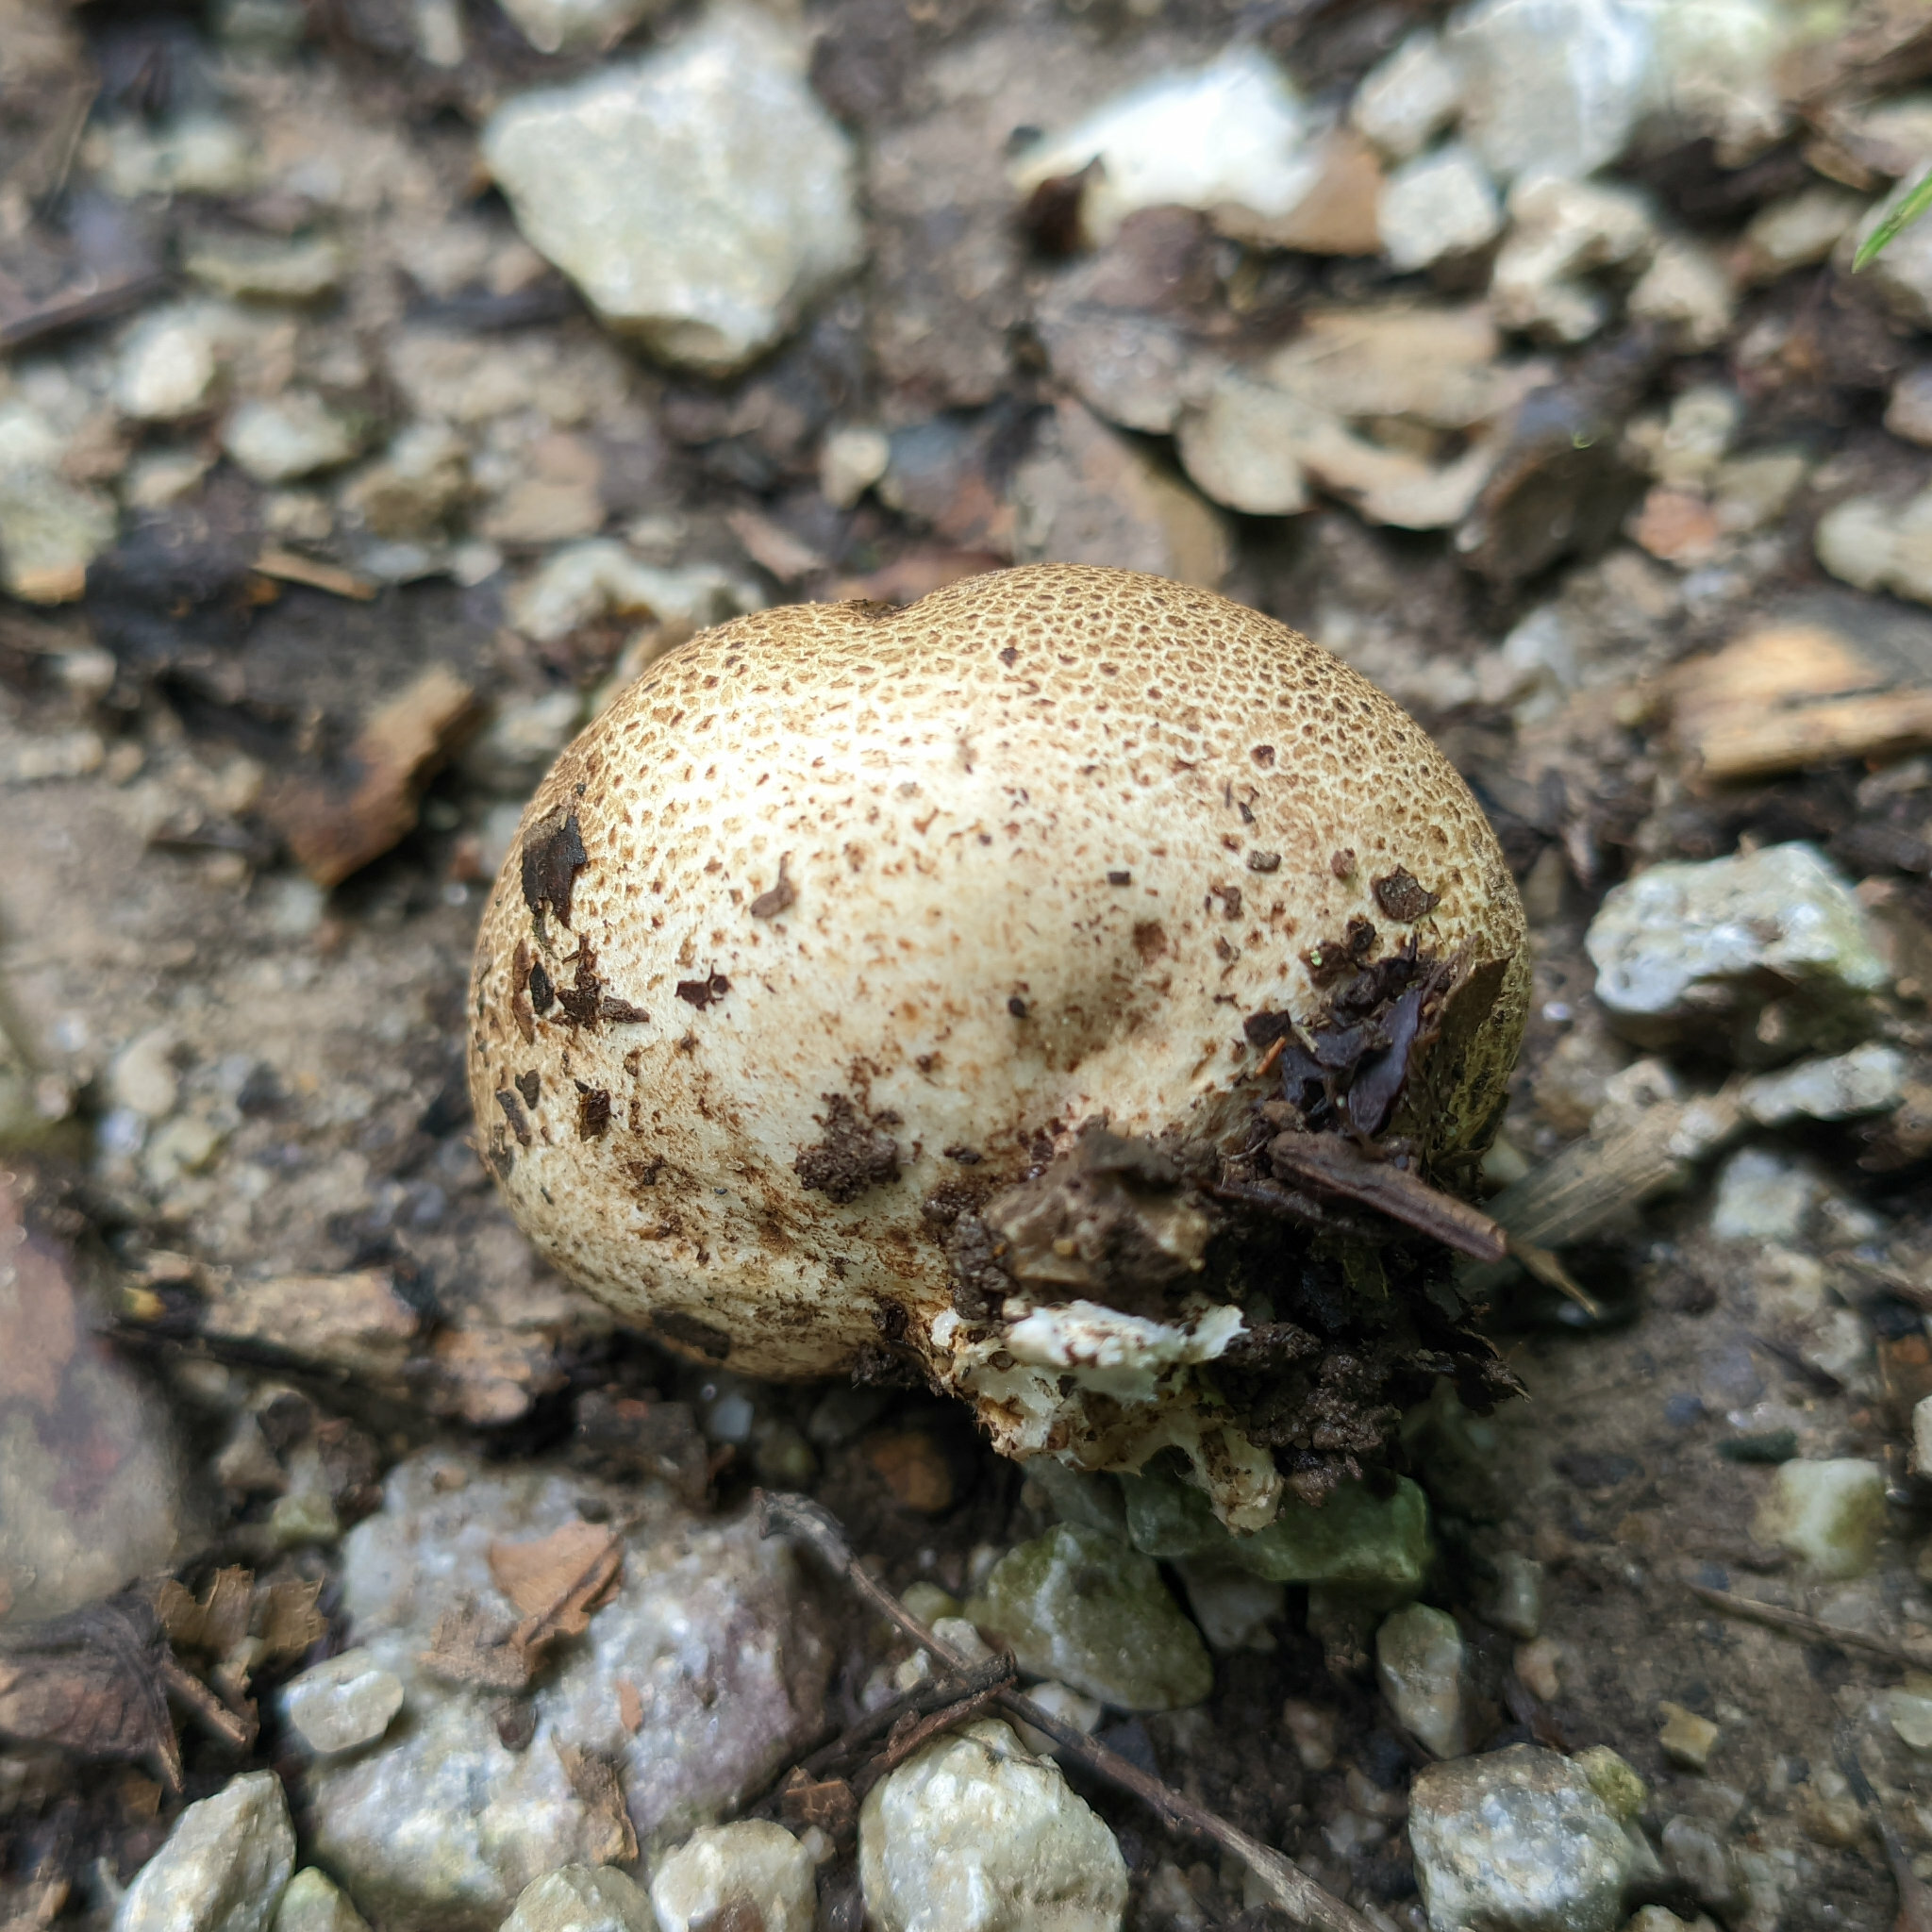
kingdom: Fungi
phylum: Basidiomycota
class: Agaricomycetes
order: Boletales
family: Sclerodermataceae
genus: Scleroderma
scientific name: Scleroderma areolatum
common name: Leopard earthball
